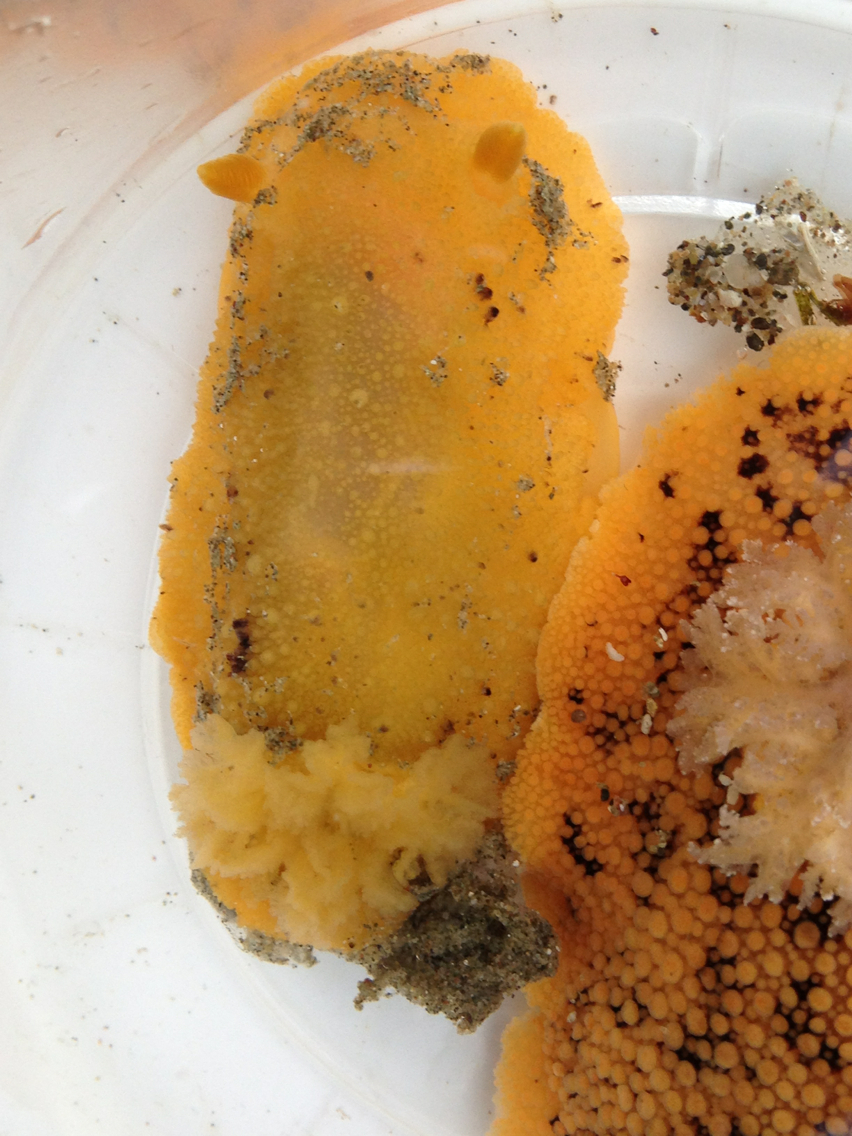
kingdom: Animalia
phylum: Mollusca
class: Gastropoda
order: Nudibranchia
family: Dorididae
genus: Doris
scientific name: Doris montereyensis
